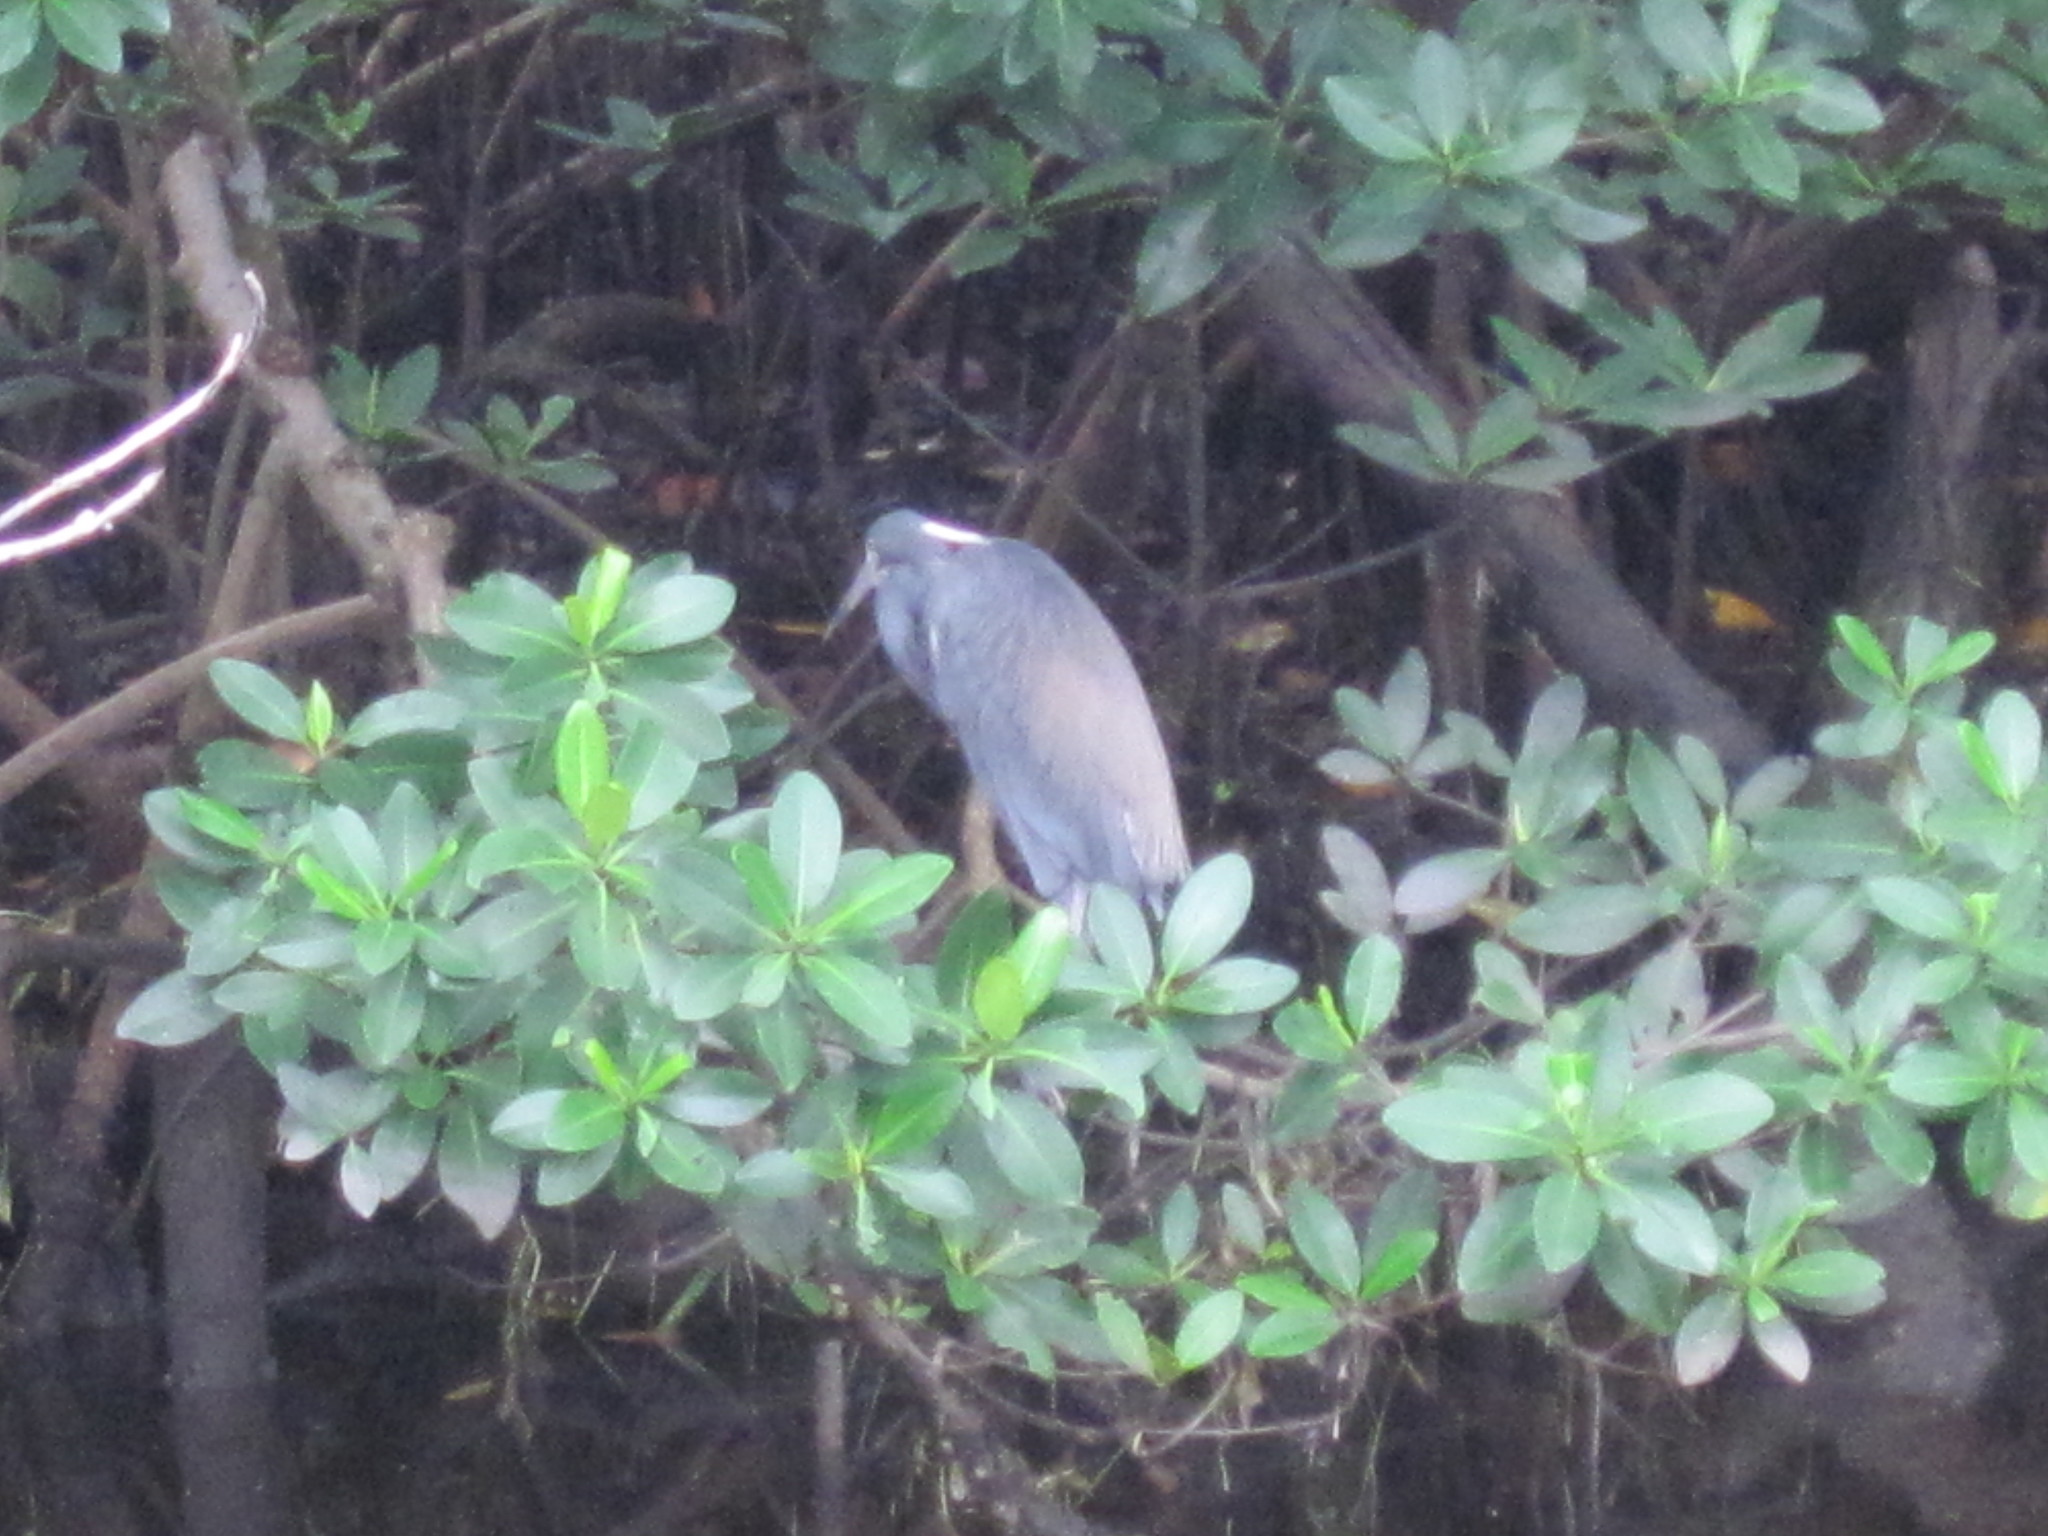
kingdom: Animalia
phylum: Chordata
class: Aves
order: Pelecaniformes
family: Ardeidae
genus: Egretta
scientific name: Egretta tricolor
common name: Tricolored heron
